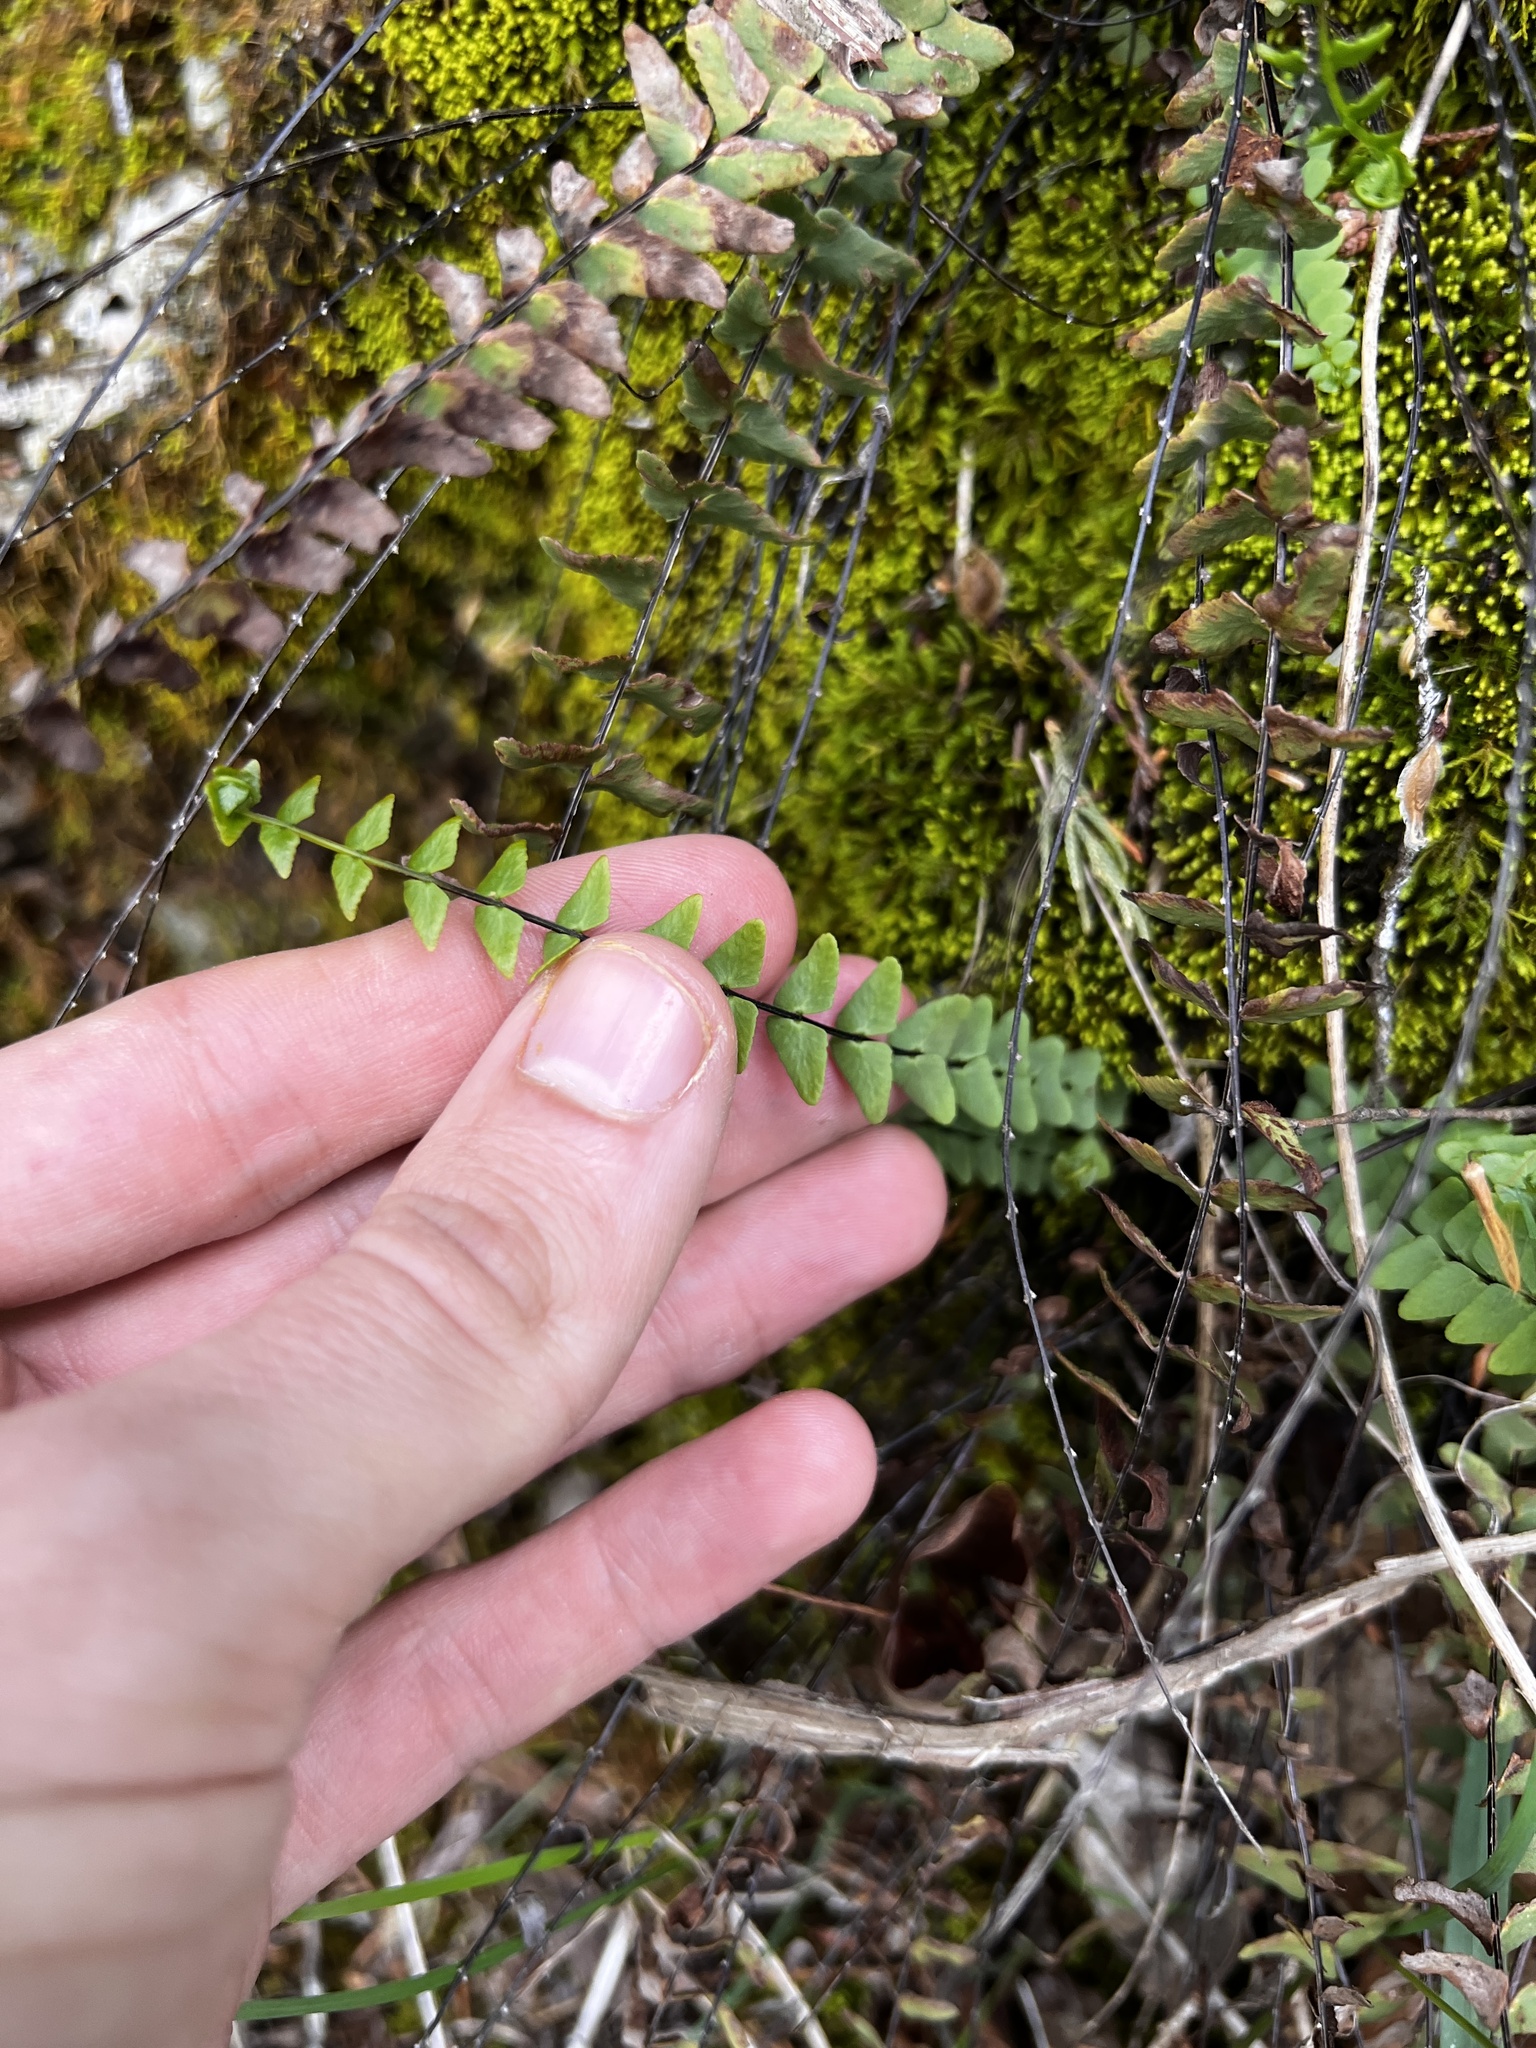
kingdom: Plantae
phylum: Tracheophyta
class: Polypodiopsida
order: Polypodiales
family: Aspleniaceae
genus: Asplenium
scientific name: Asplenium resiliens
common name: Blackstem spleenwort
